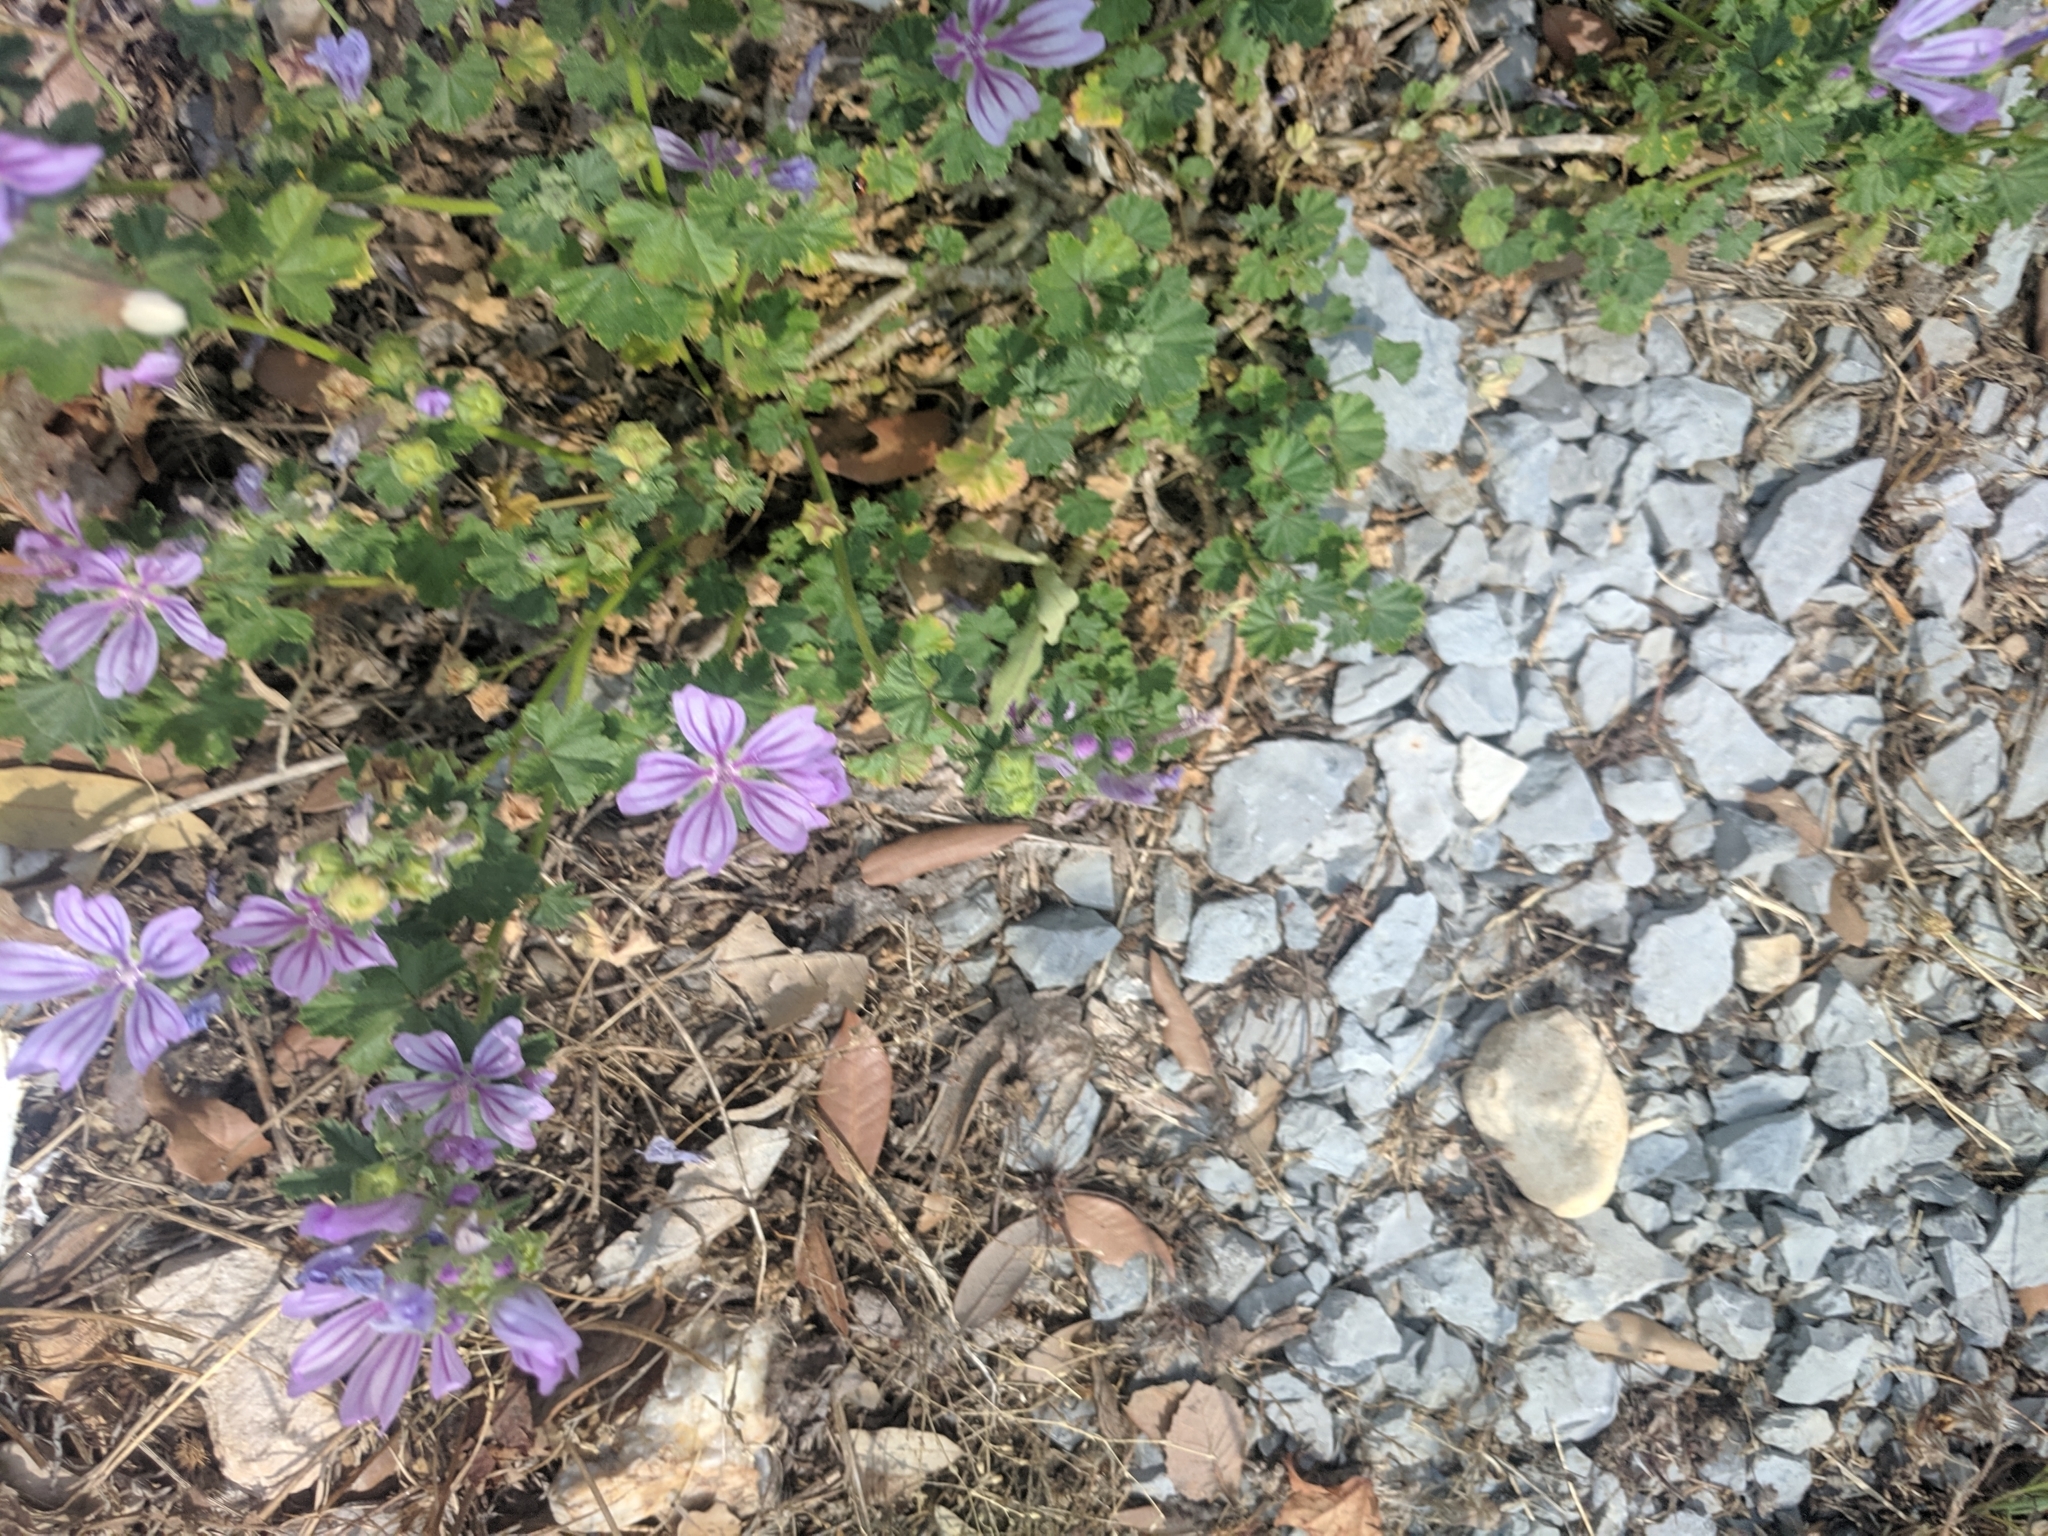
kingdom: Plantae
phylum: Tracheophyta
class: Magnoliopsida
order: Malvales
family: Malvaceae
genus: Malva
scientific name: Malva sylvestris
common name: Common mallow
